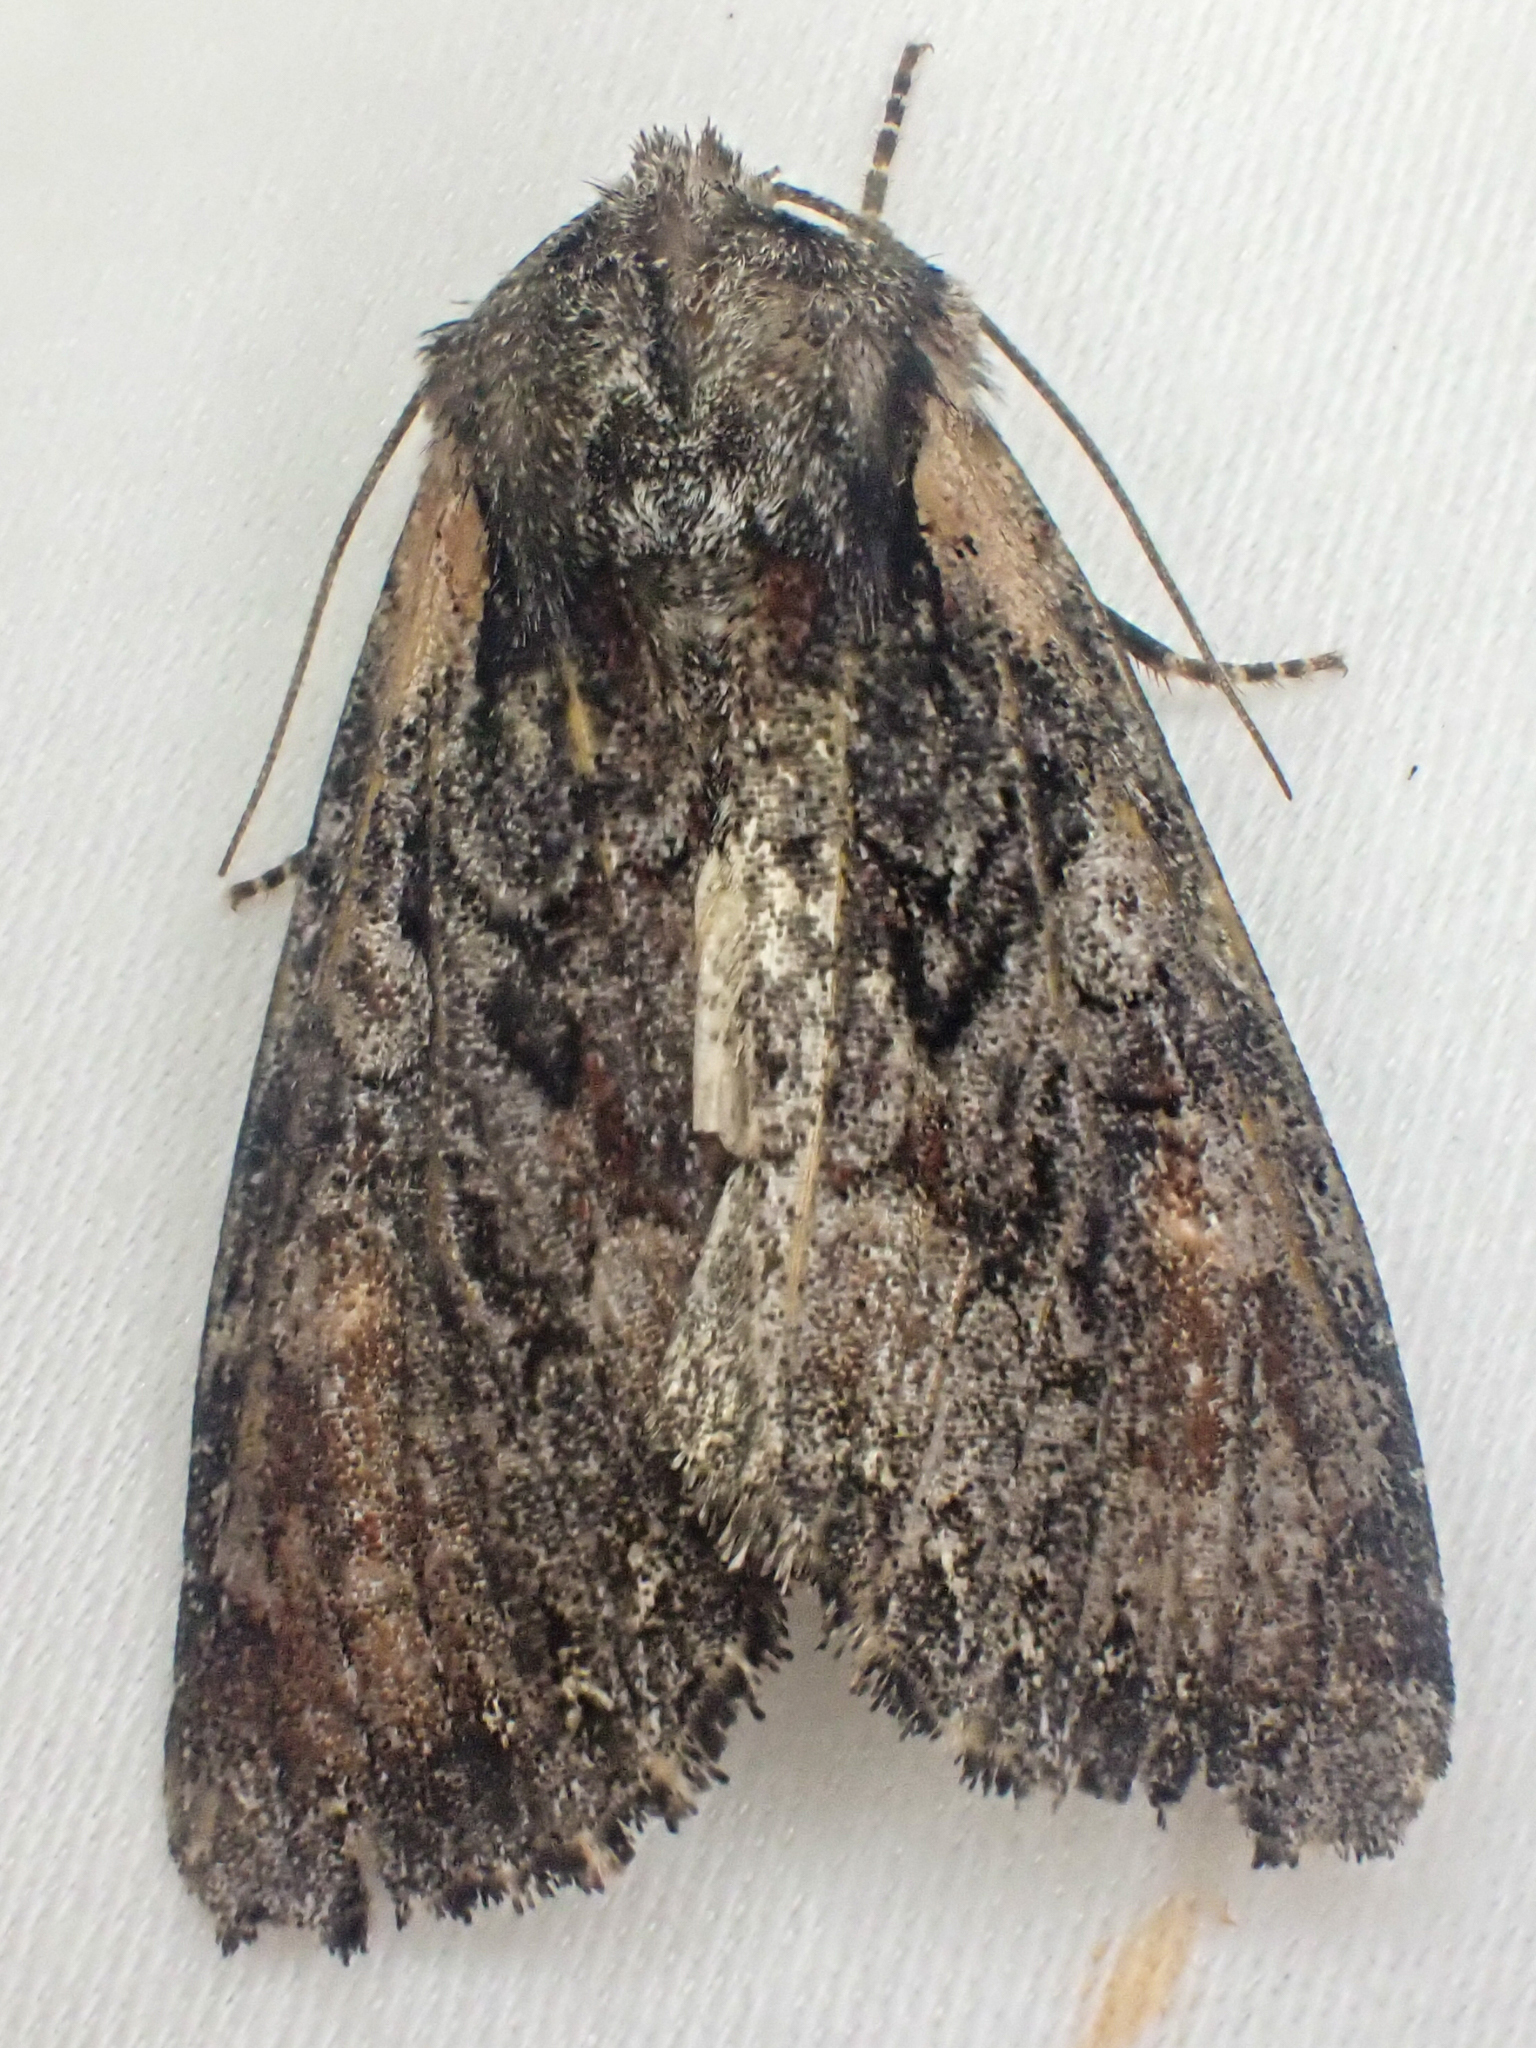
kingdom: Animalia
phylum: Arthropoda
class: Insecta
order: Lepidoptera
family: Noctuidae
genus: Lacanobia
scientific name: Lacanobia nevadae
